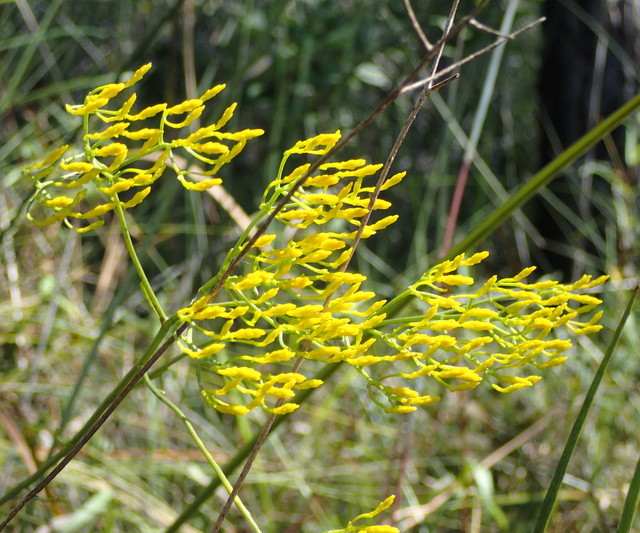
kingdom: Plantae
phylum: Tracheophyta
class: Magnoliopsida
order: Asterales
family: Asteraceae
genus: Bigelowia
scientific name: Bigelowia nudata
